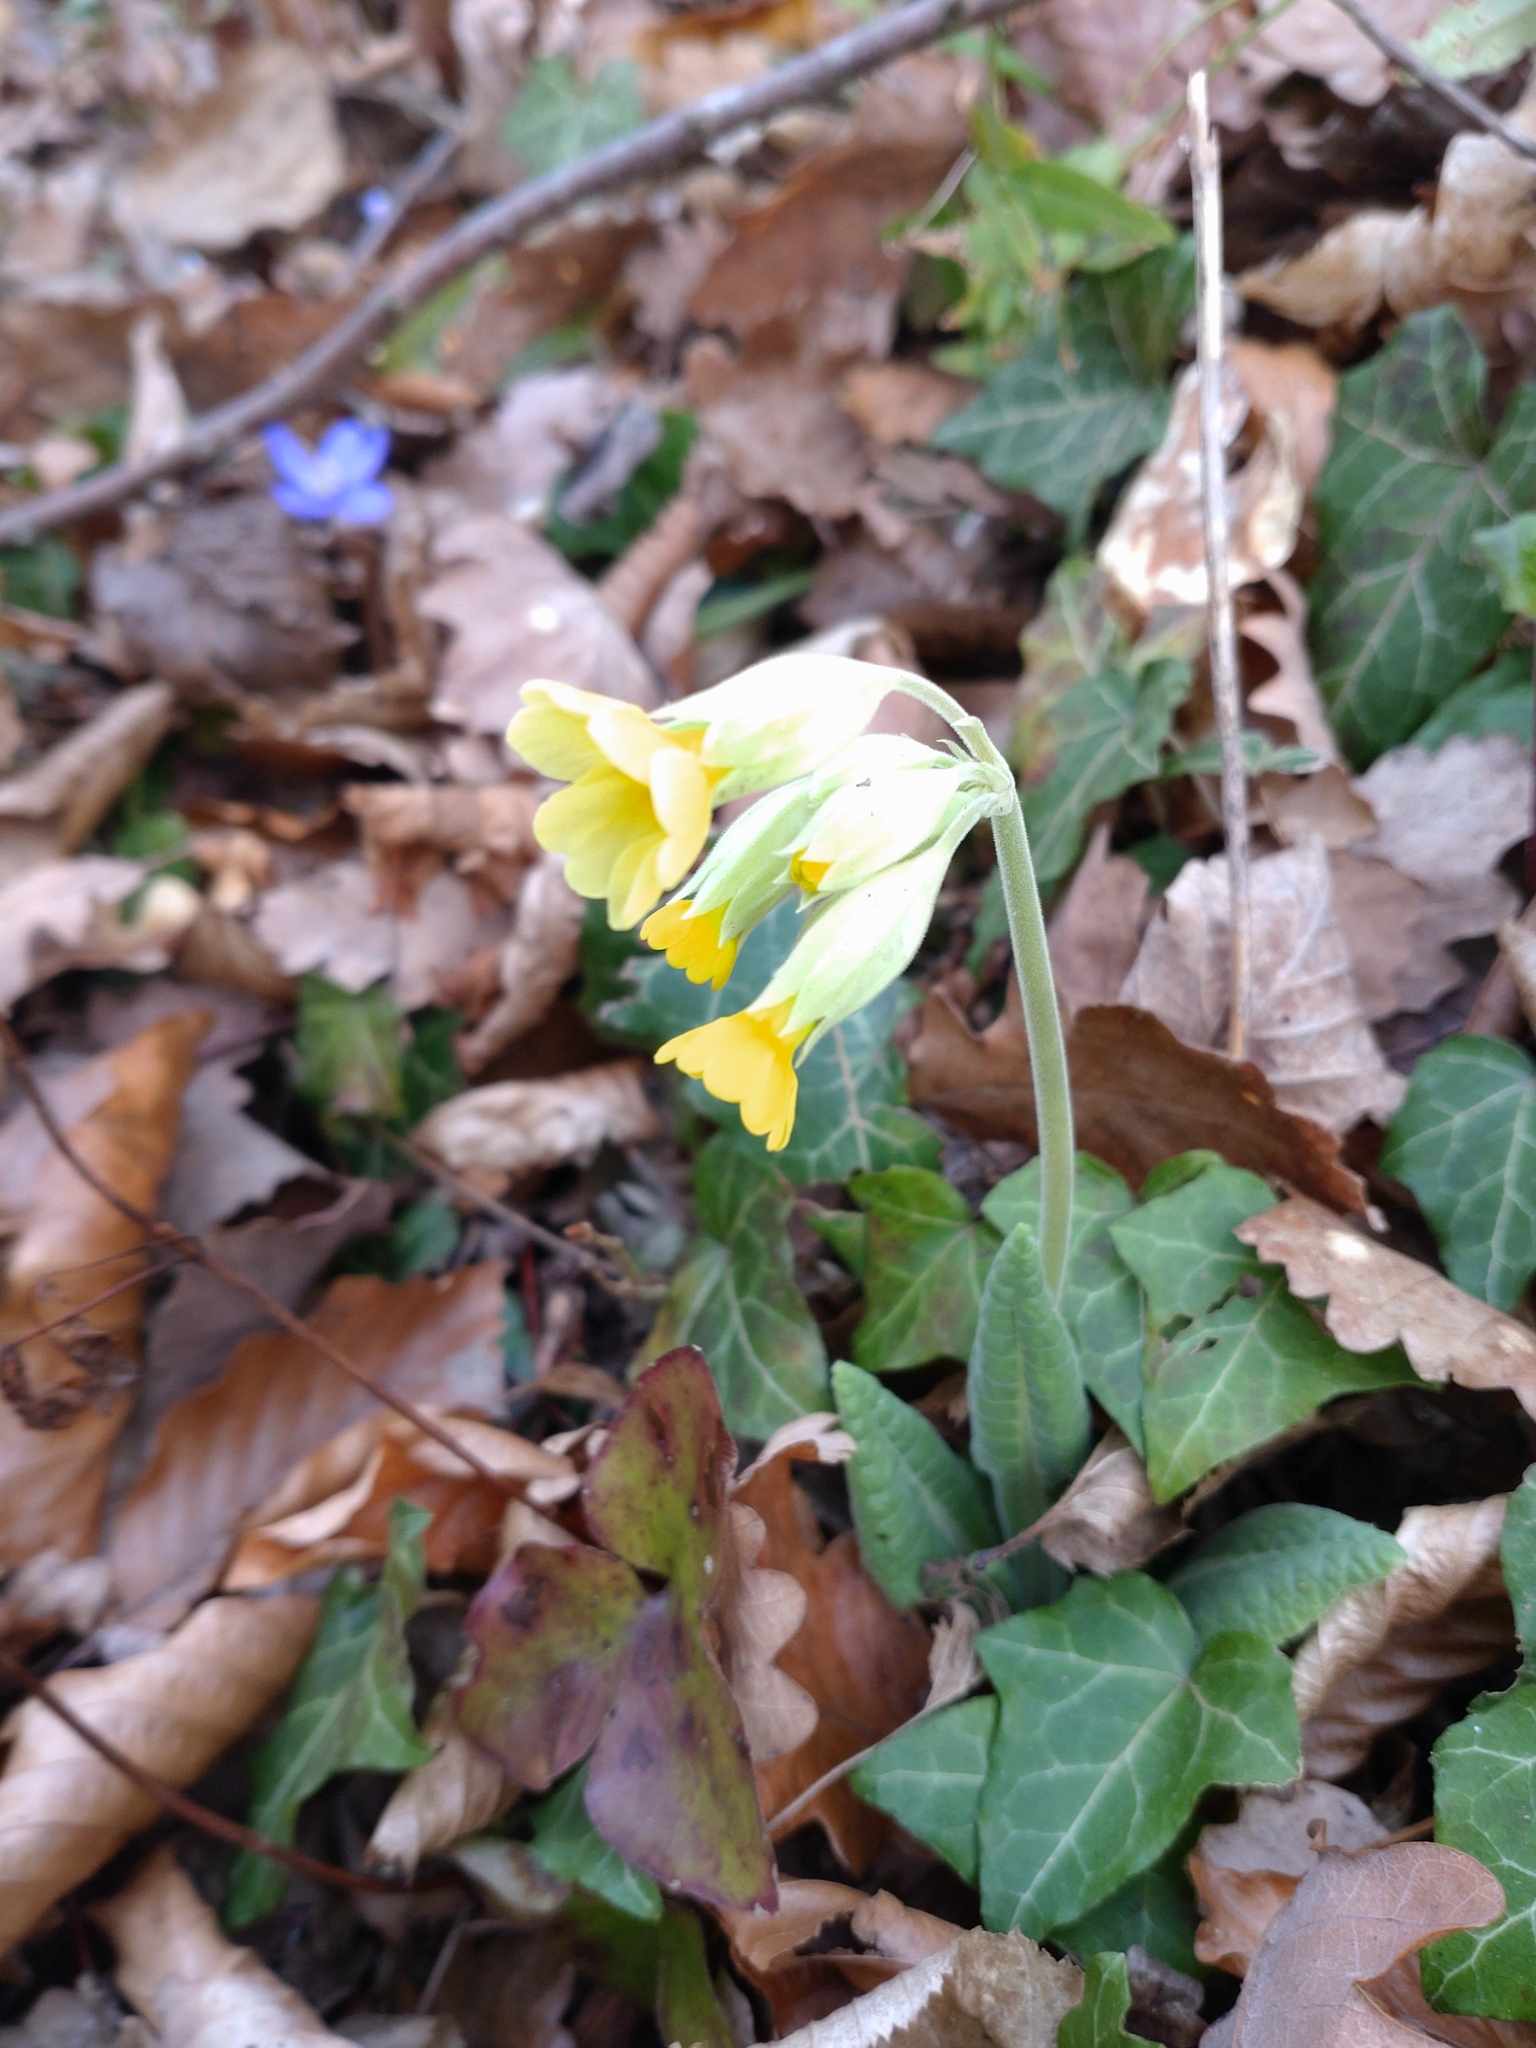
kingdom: Plantae
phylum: Tracheophyta
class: Magnoliopsida
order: Ericales
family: Primulaceae
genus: Primula
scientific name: Primula veris
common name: Cowslip
